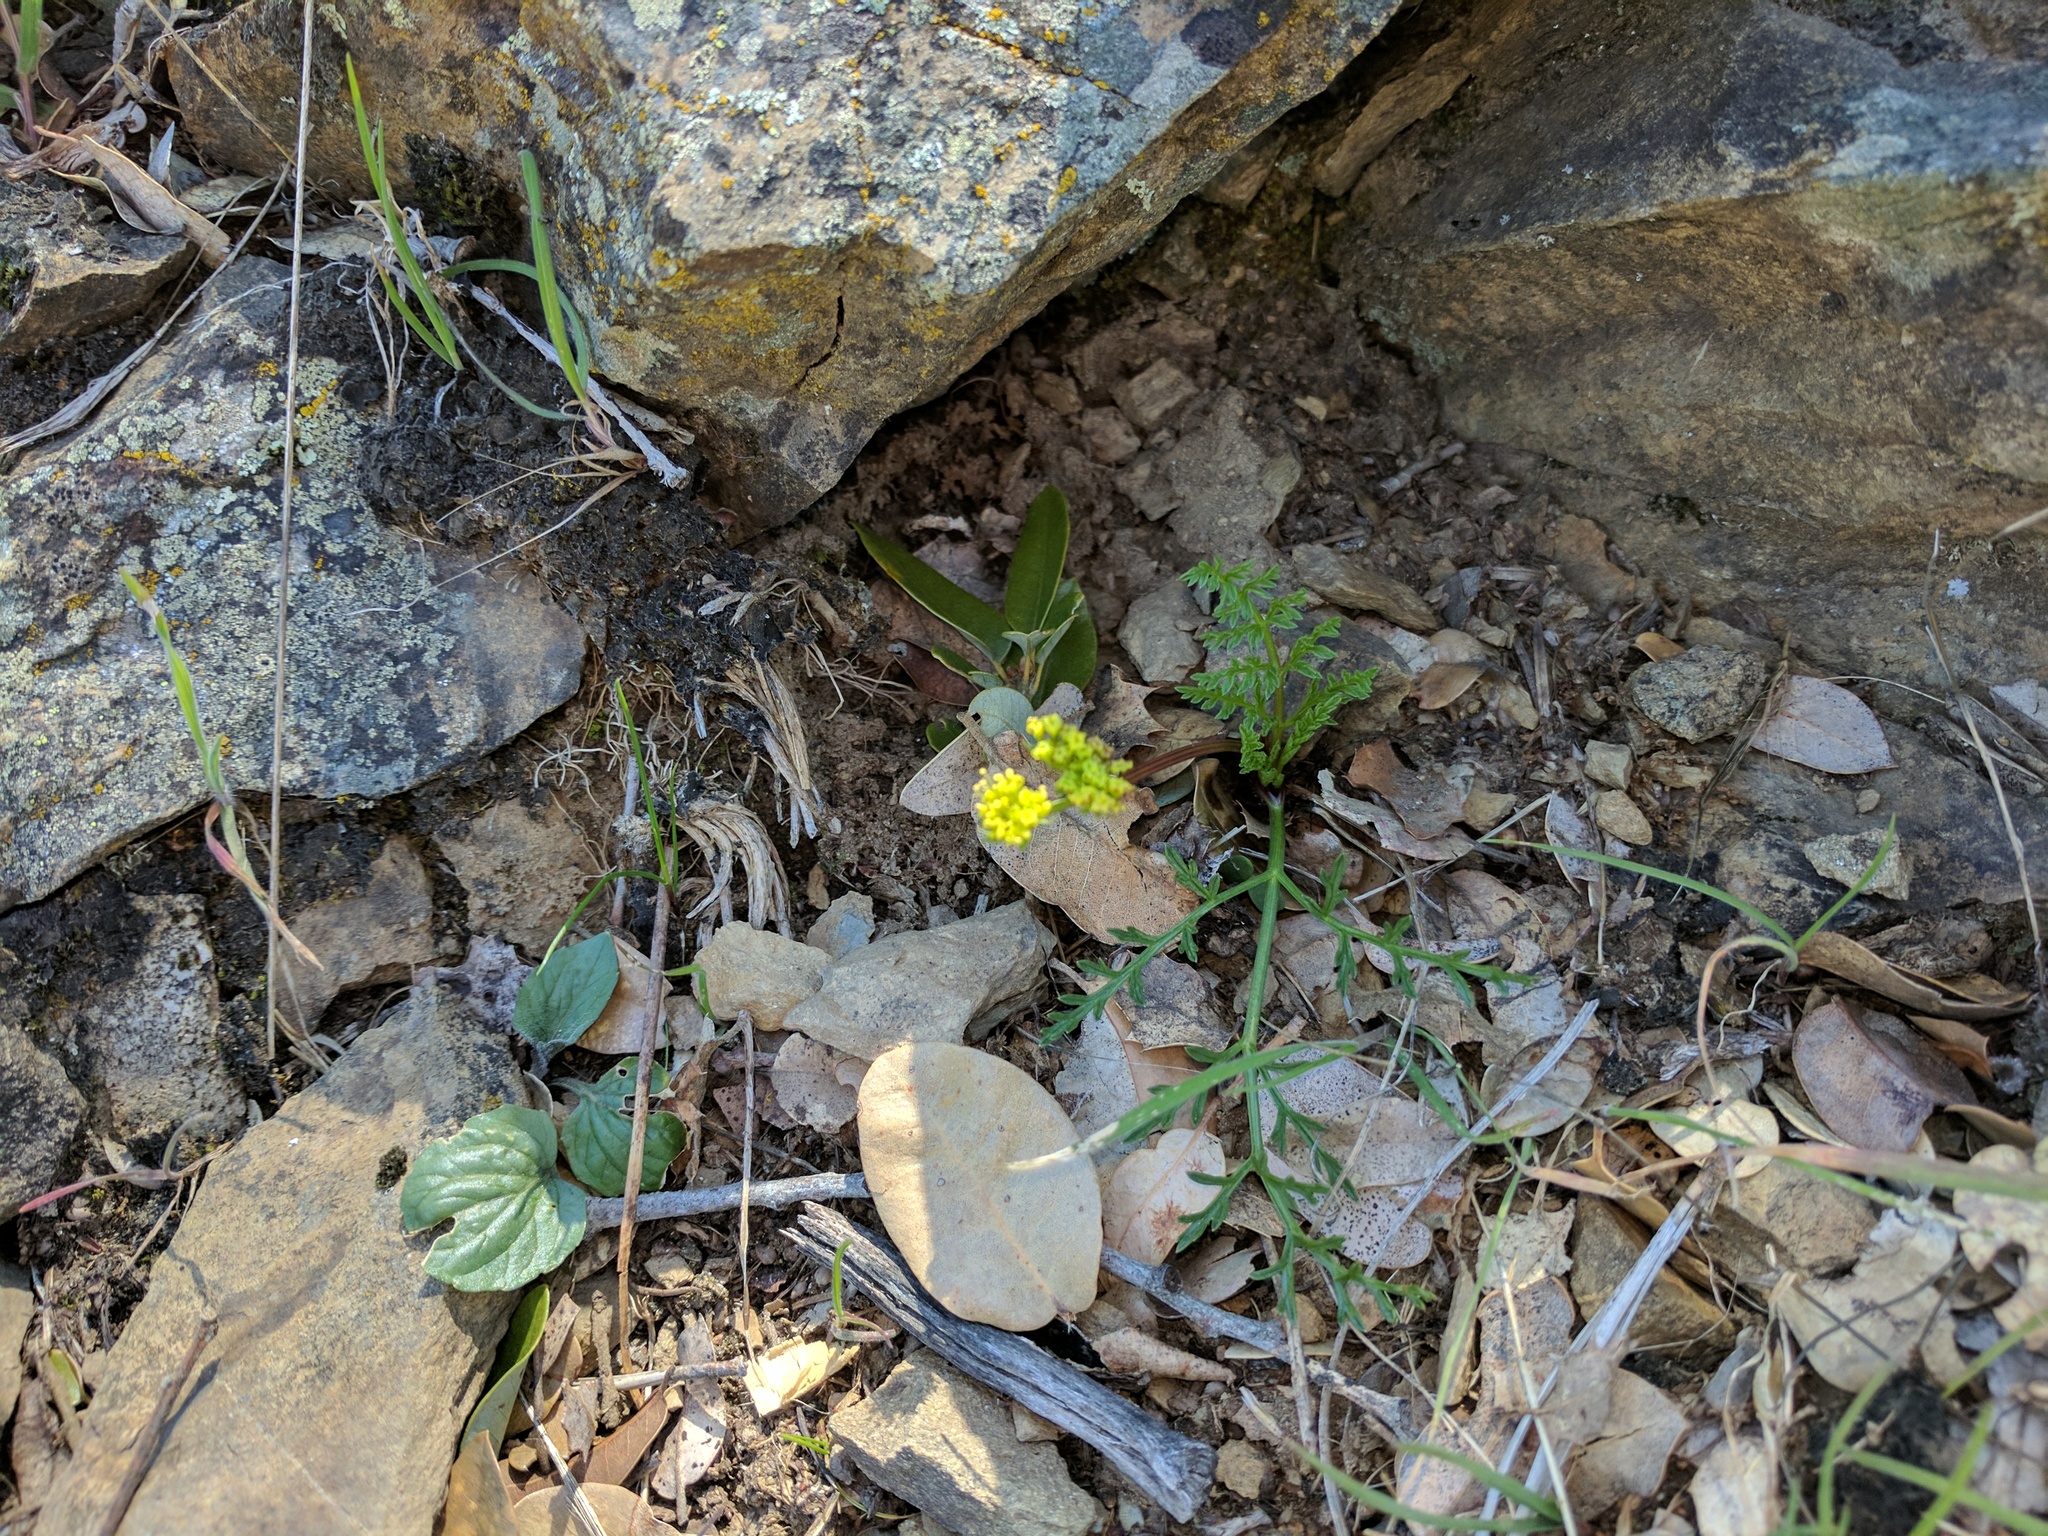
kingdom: Plantae
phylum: Tracheophyta
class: Magnoliopsida
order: Apiales
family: Apiaceae
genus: Lomatium
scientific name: Lomatium observatorium
